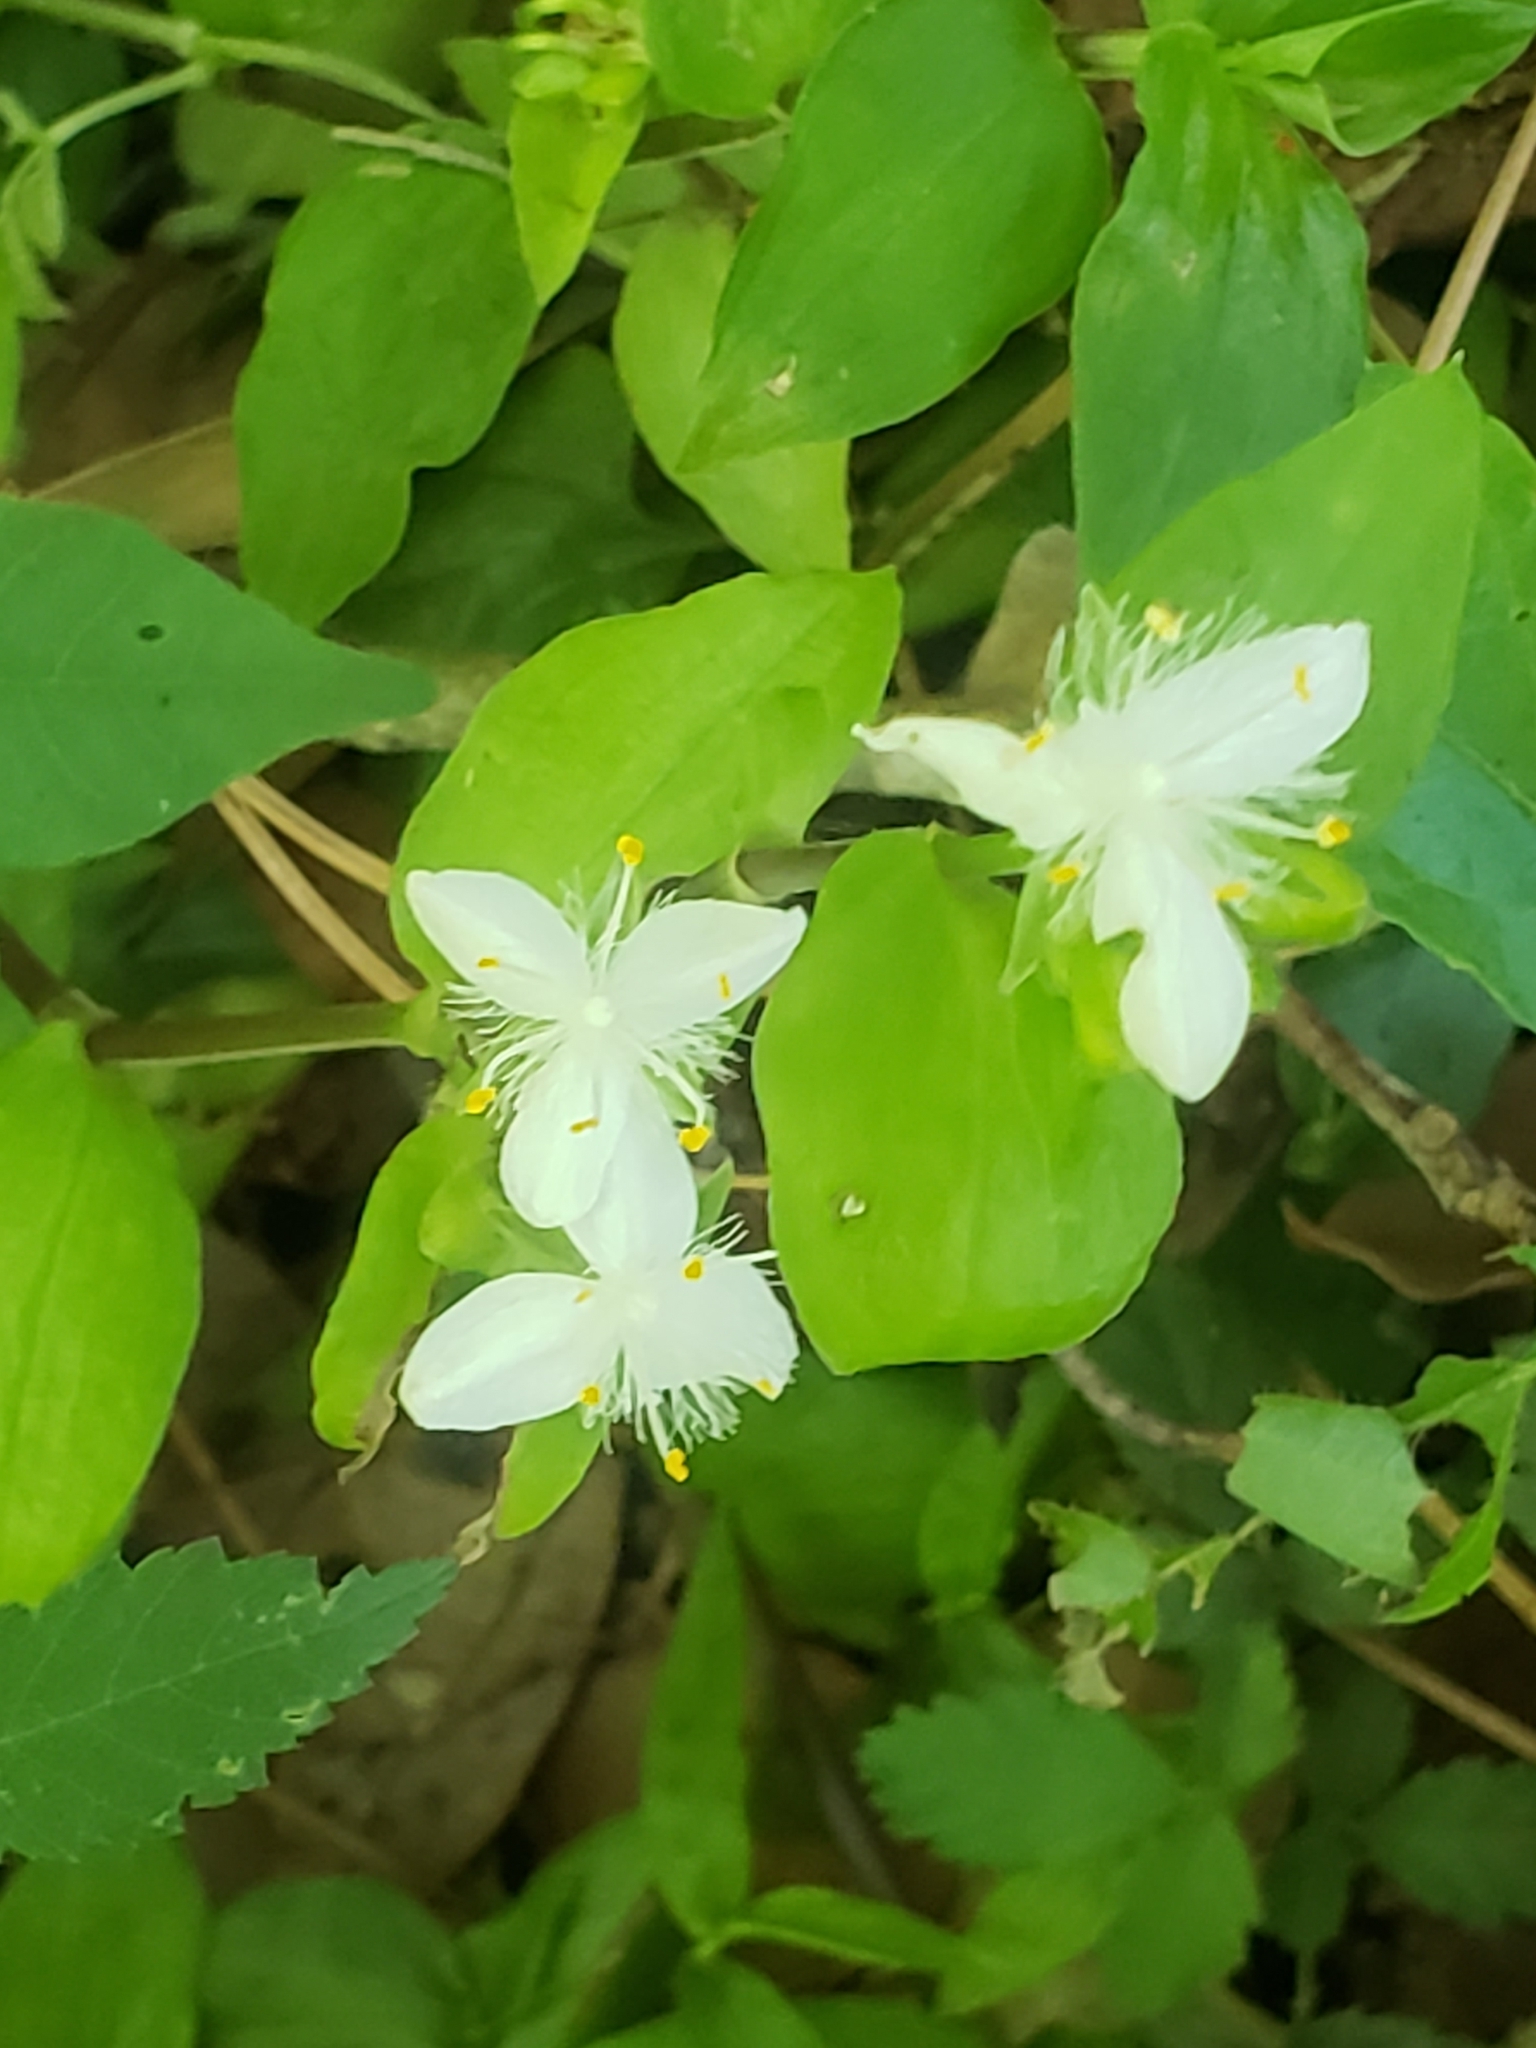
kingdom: Plantae
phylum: Tracheophyta
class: Liliopsida
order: Commelinales
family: Commelinaceae
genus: Tradescantia
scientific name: Tradescantia fluminensis
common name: Wandering-jew
